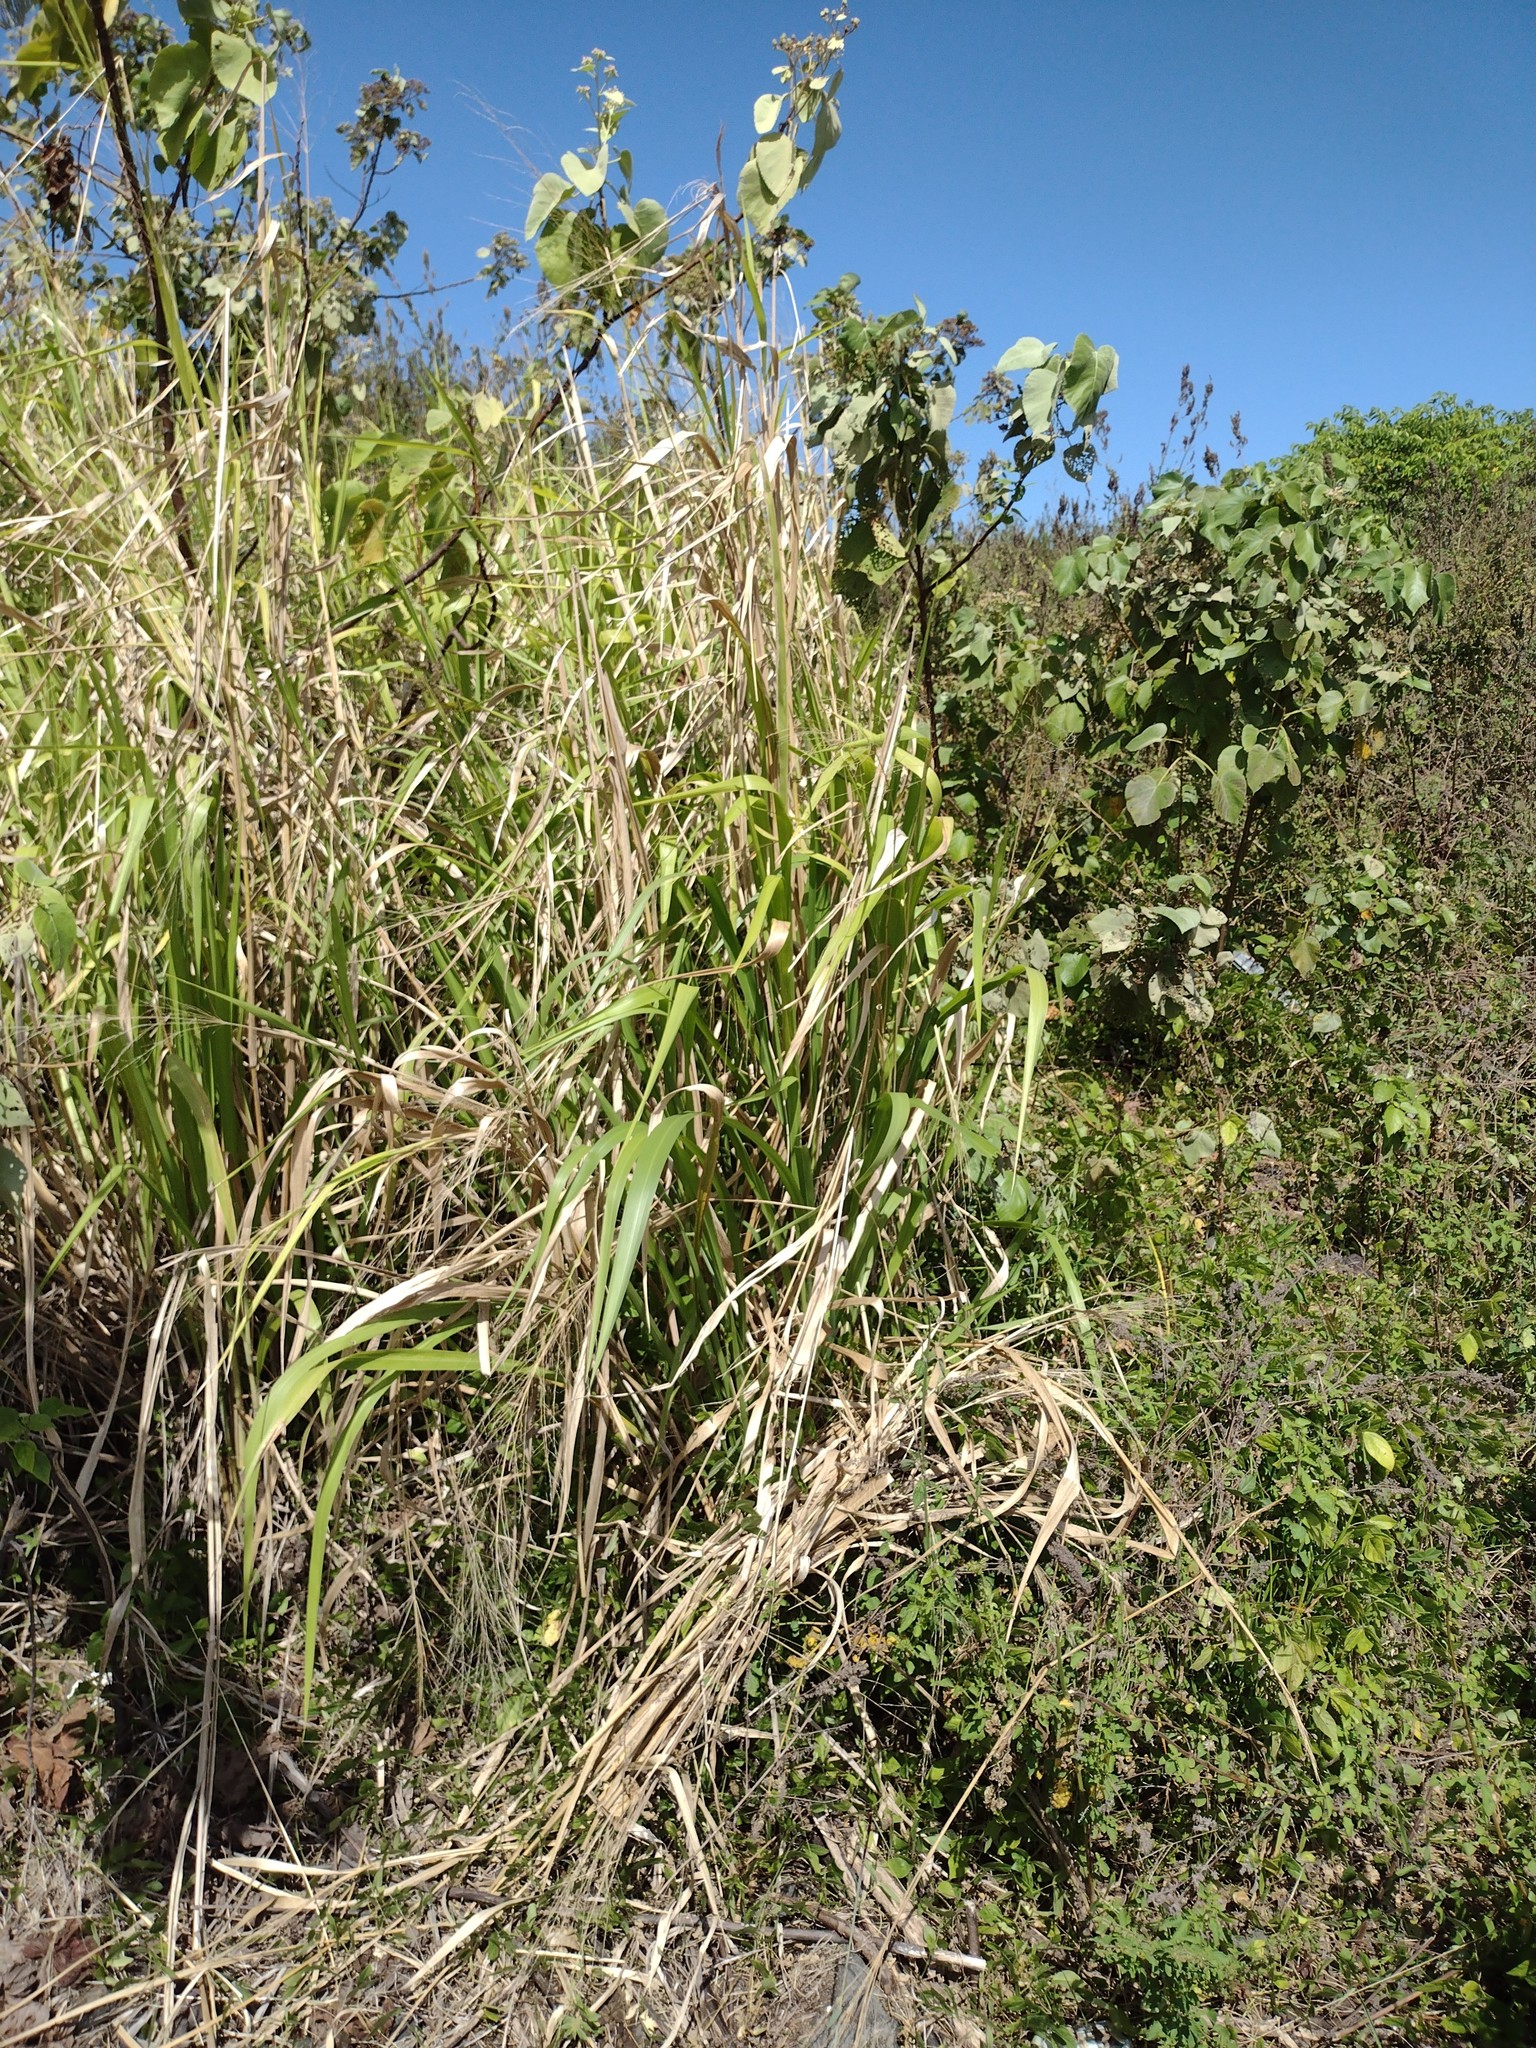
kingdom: Plantae
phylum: Tracheophyta
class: Liliopsida
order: Poales
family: Poaceae
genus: Megathyrsus
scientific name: Megathyrsus maximus
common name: Guineagrass
